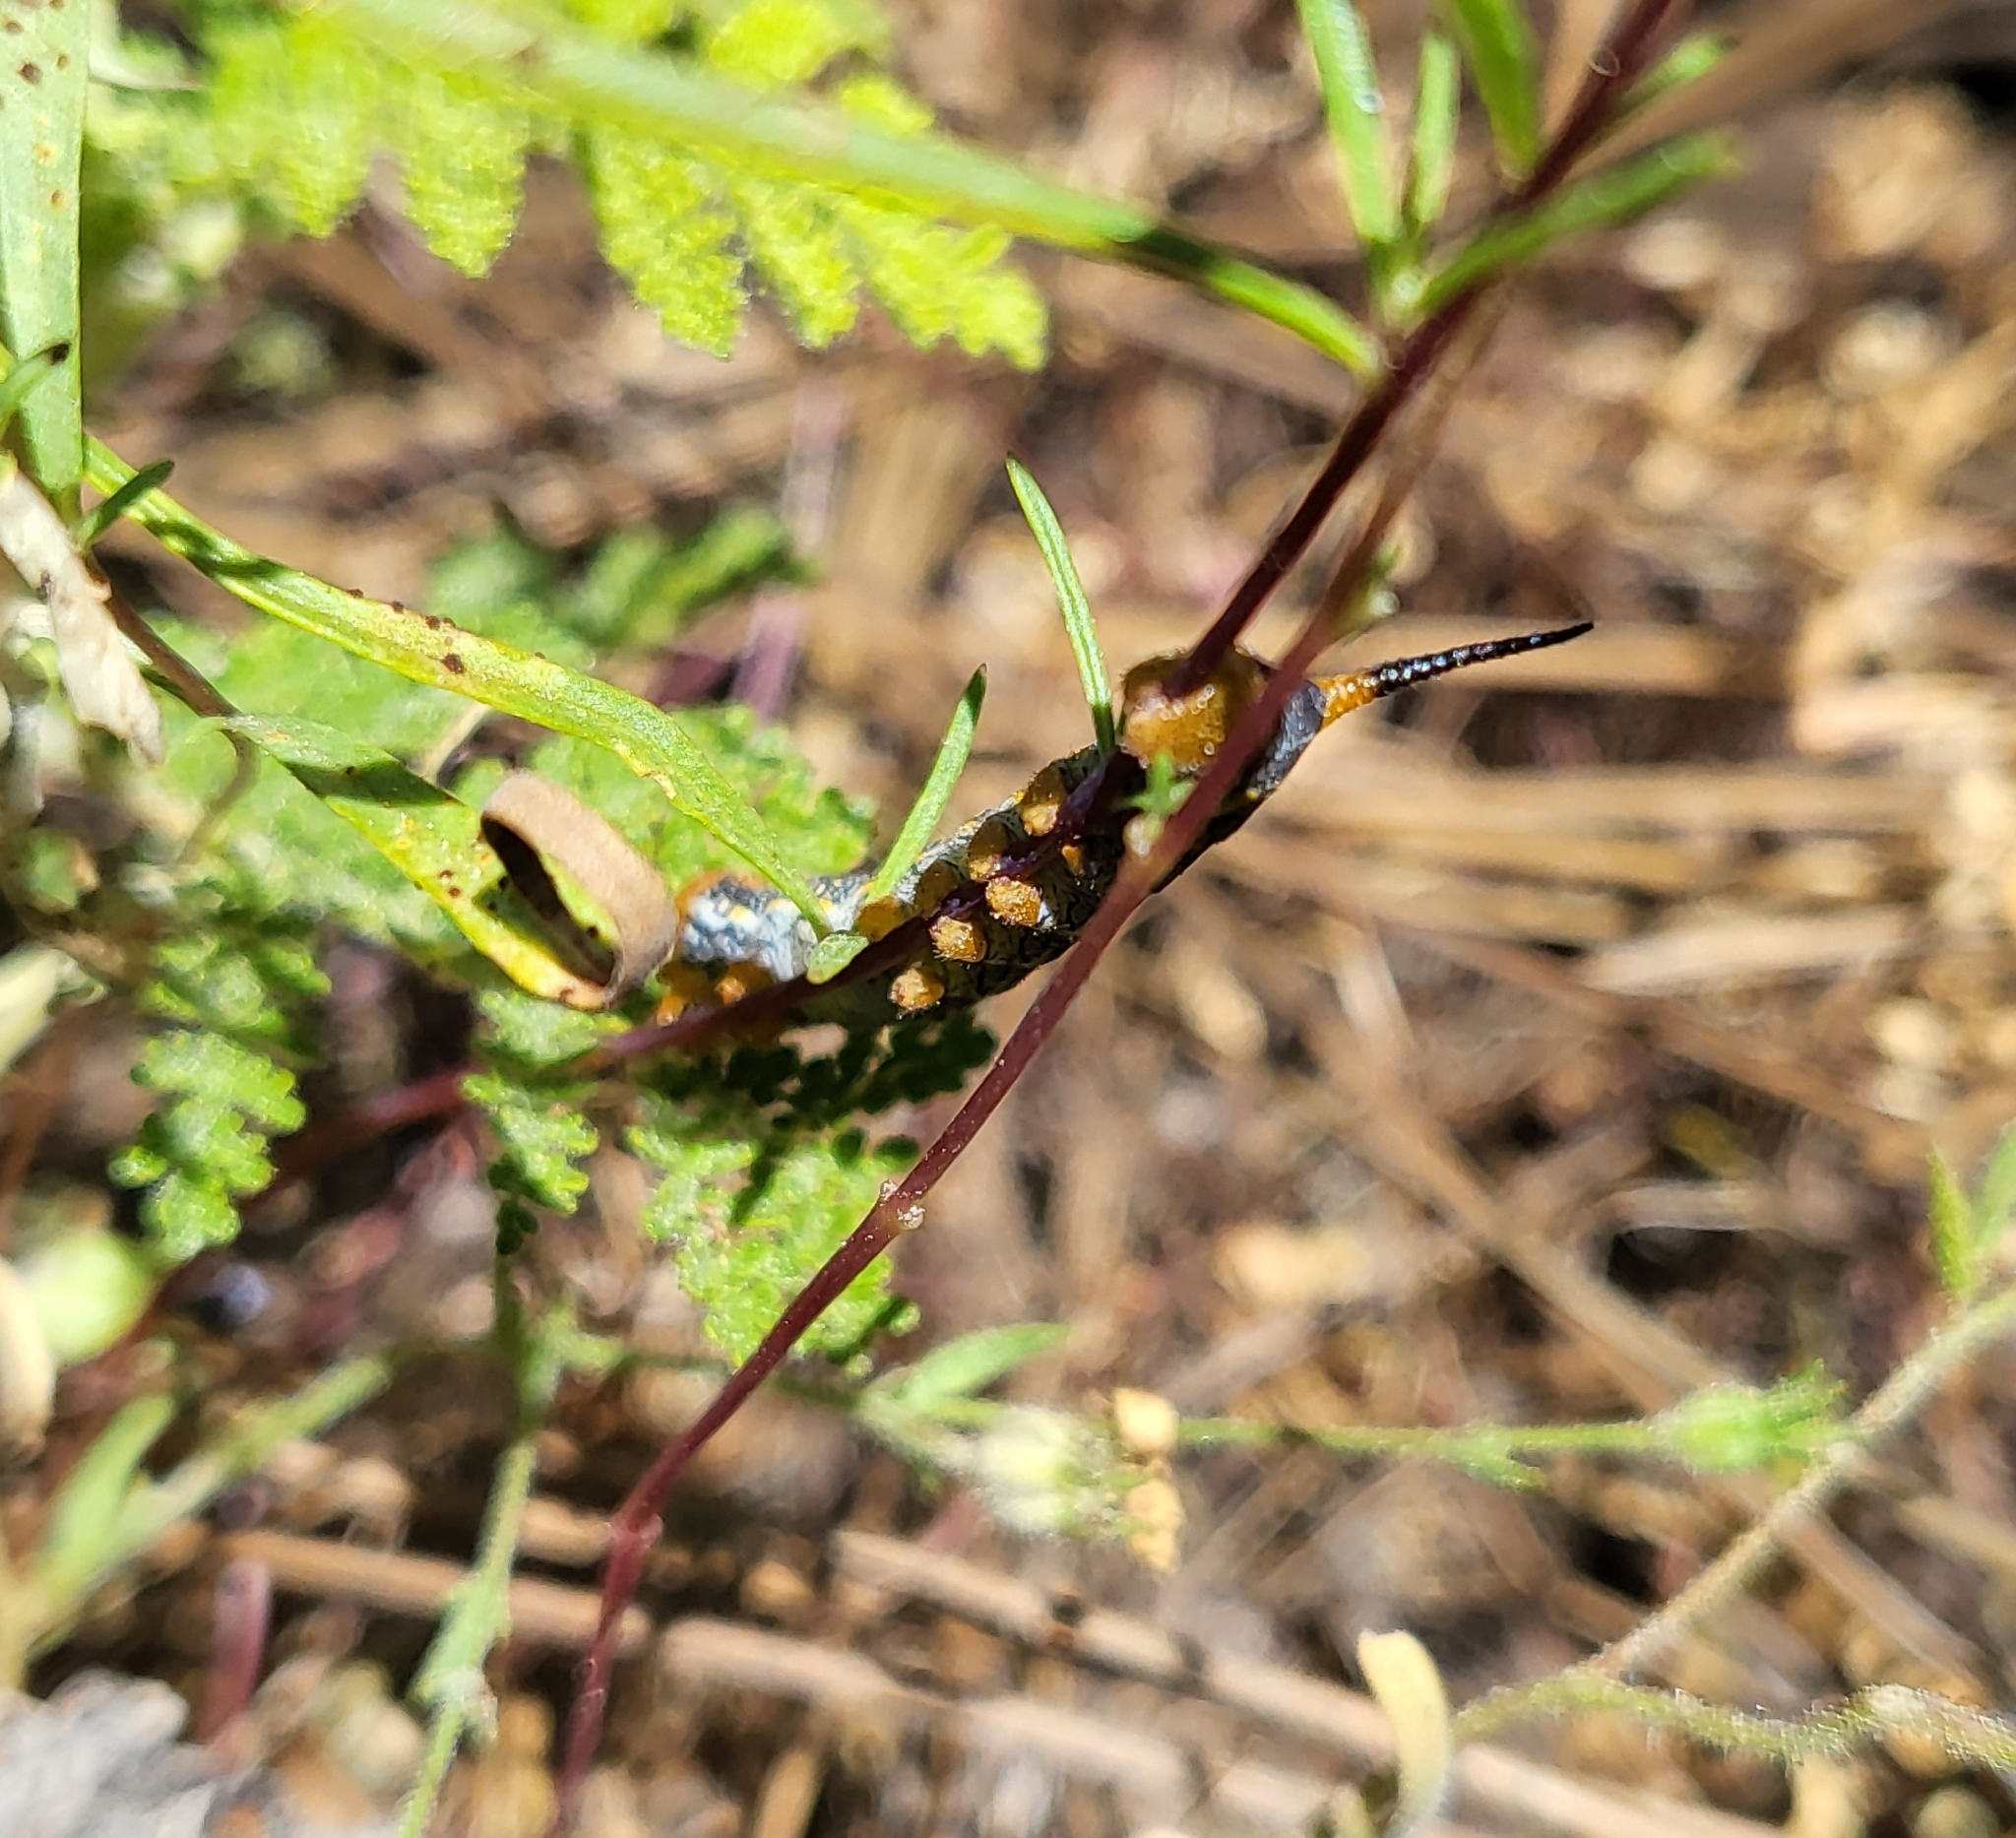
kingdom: Animalia
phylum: Arthropoda
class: Insecta
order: Lepidoptera
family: Sphingidae
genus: Hyles
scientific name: Hyles lineata
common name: White-lined sphinx
